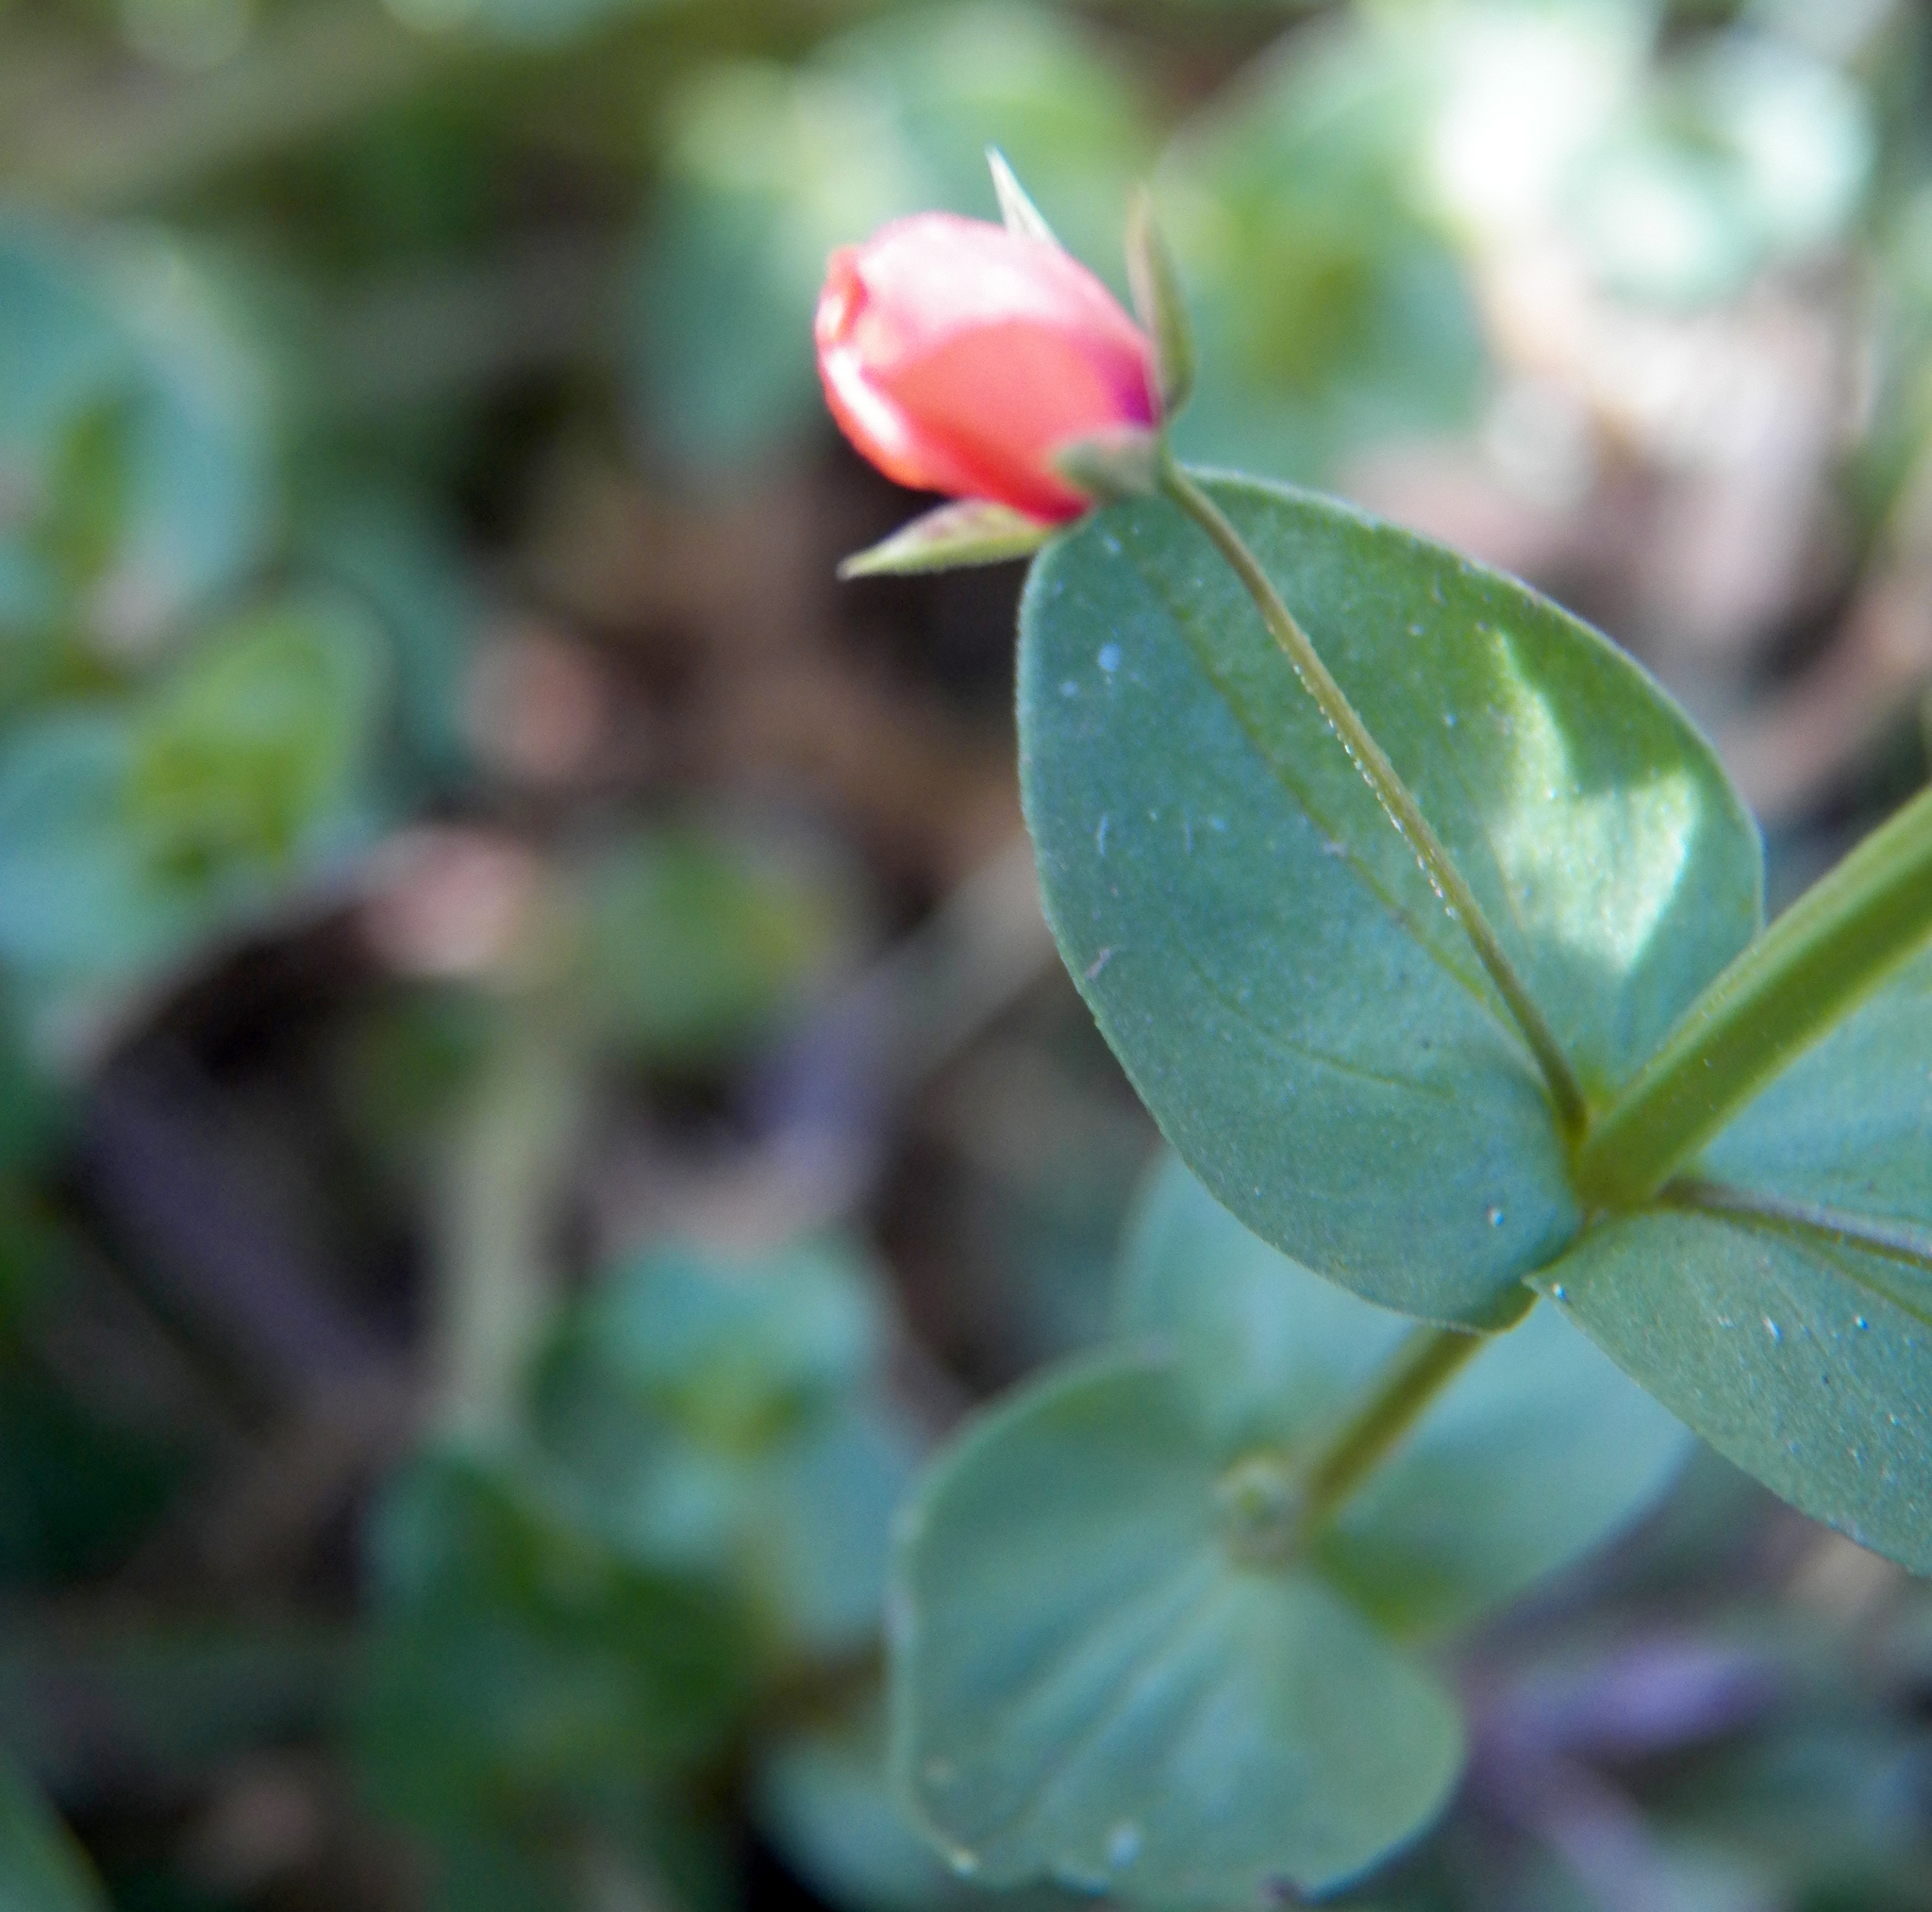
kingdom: Plantae
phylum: Tracheophyta
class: Magnoliopsida
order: Ericales
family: Primulaceae
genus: Lysimachia
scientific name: Lysimachia arvensis
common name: Scarlet pimpernel
